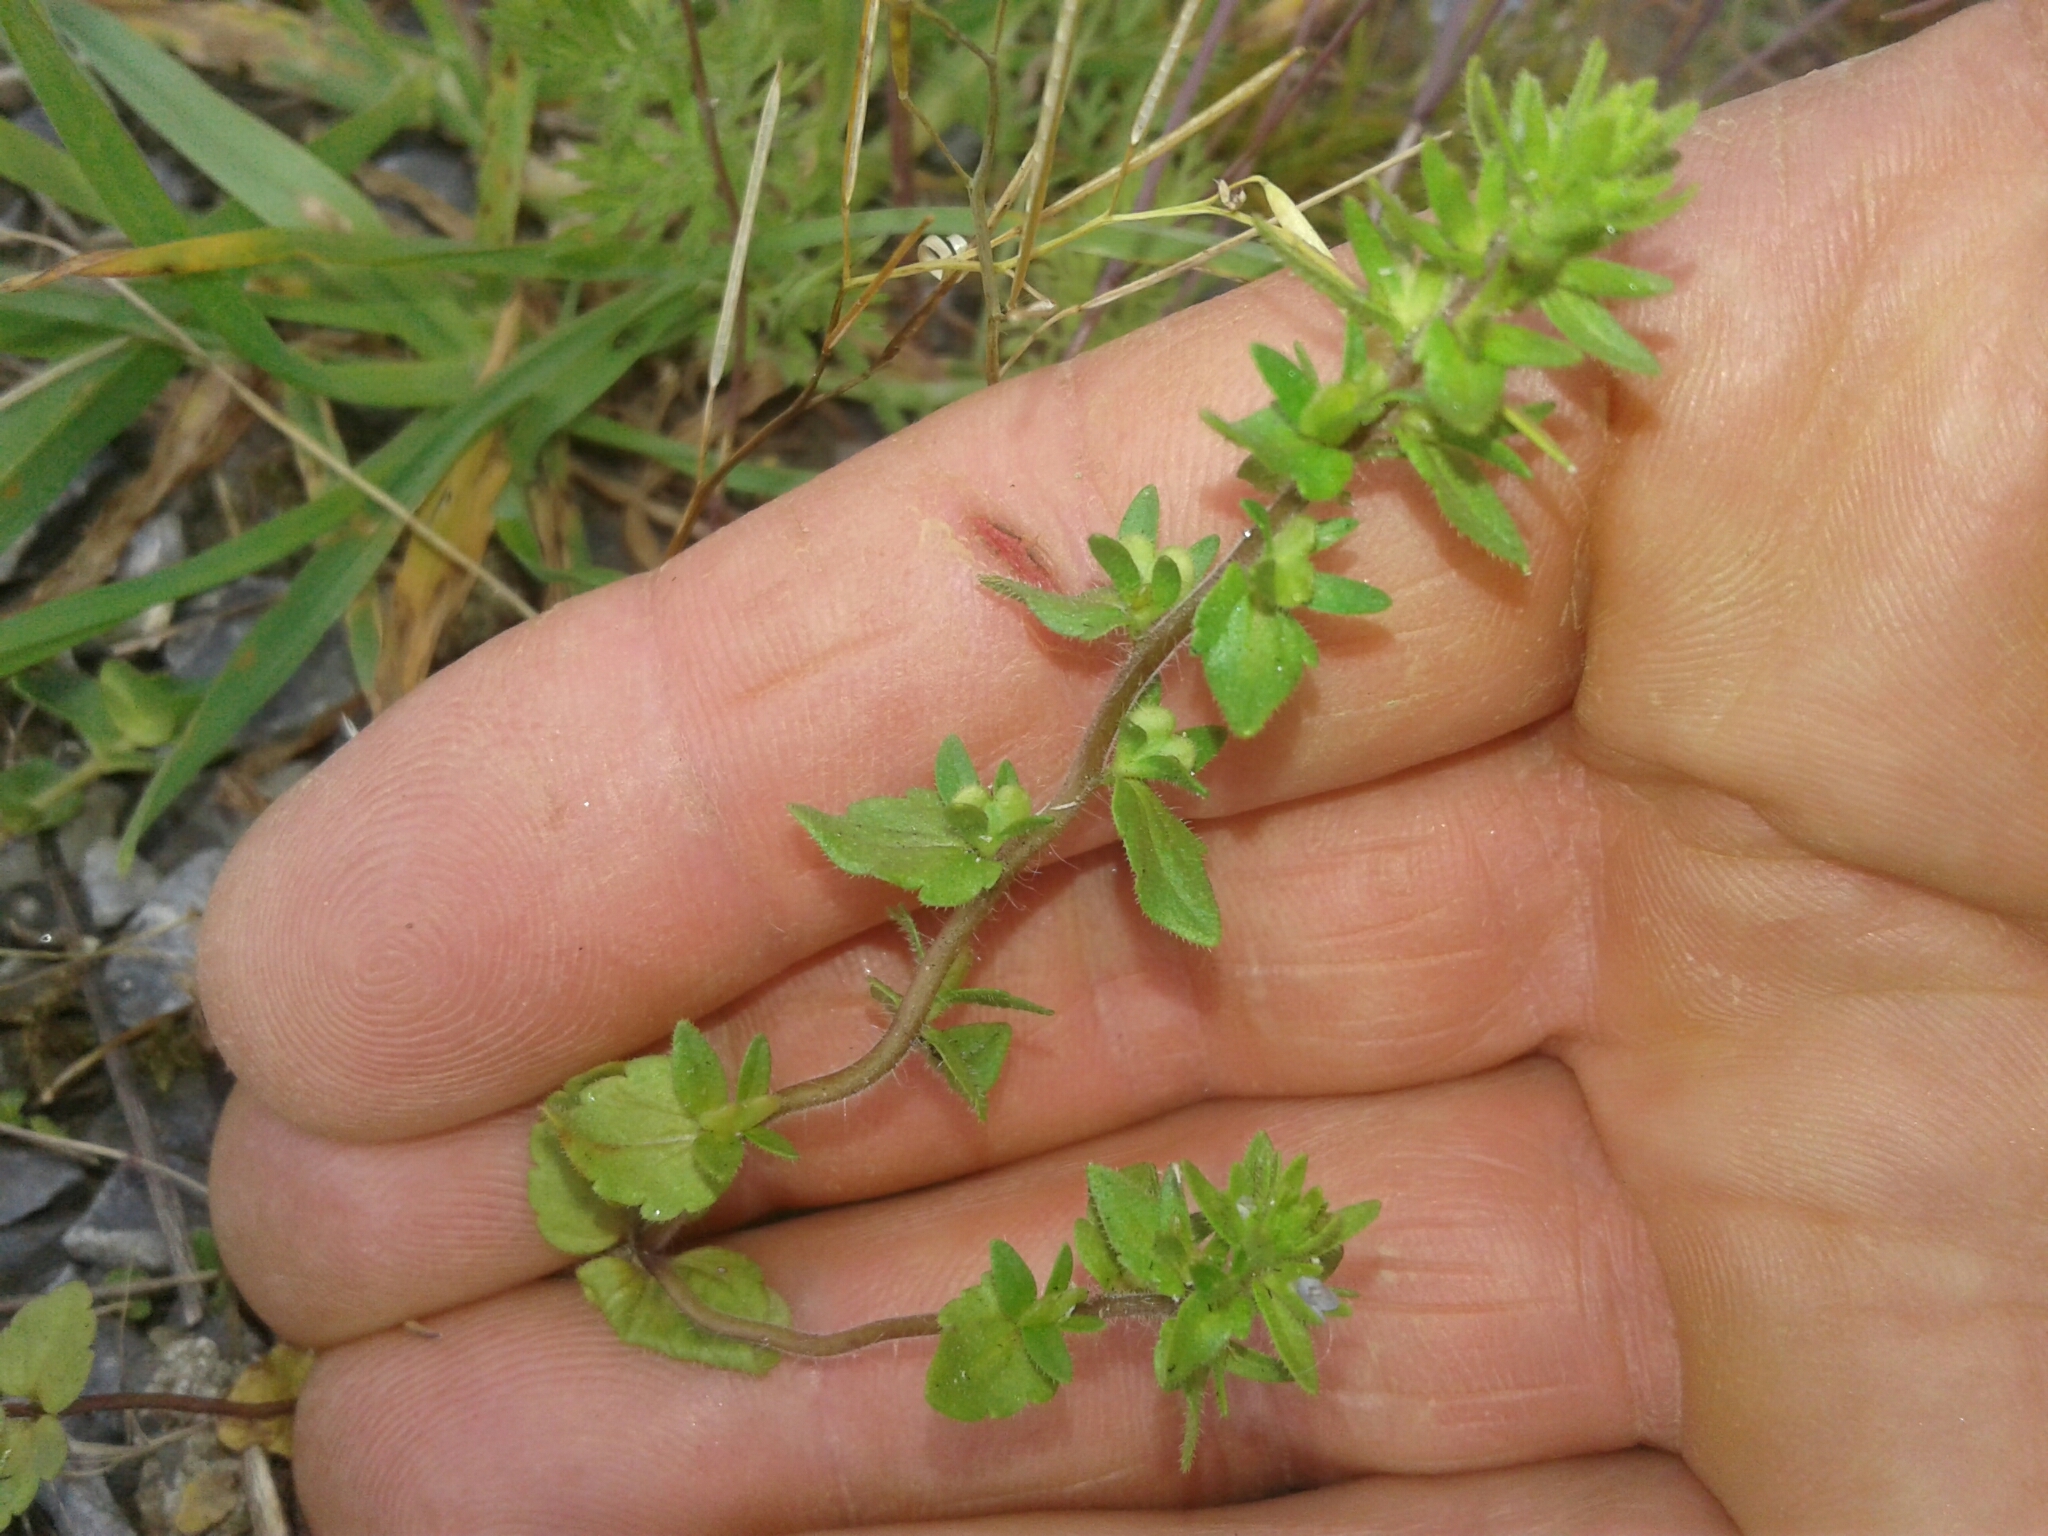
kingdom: Plantae
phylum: Tracheophyta
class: Magnoliopsida
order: Lamiales
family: Plantaginaceae
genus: Veronica
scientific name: Veronica arvensis
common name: Corn speedwell
